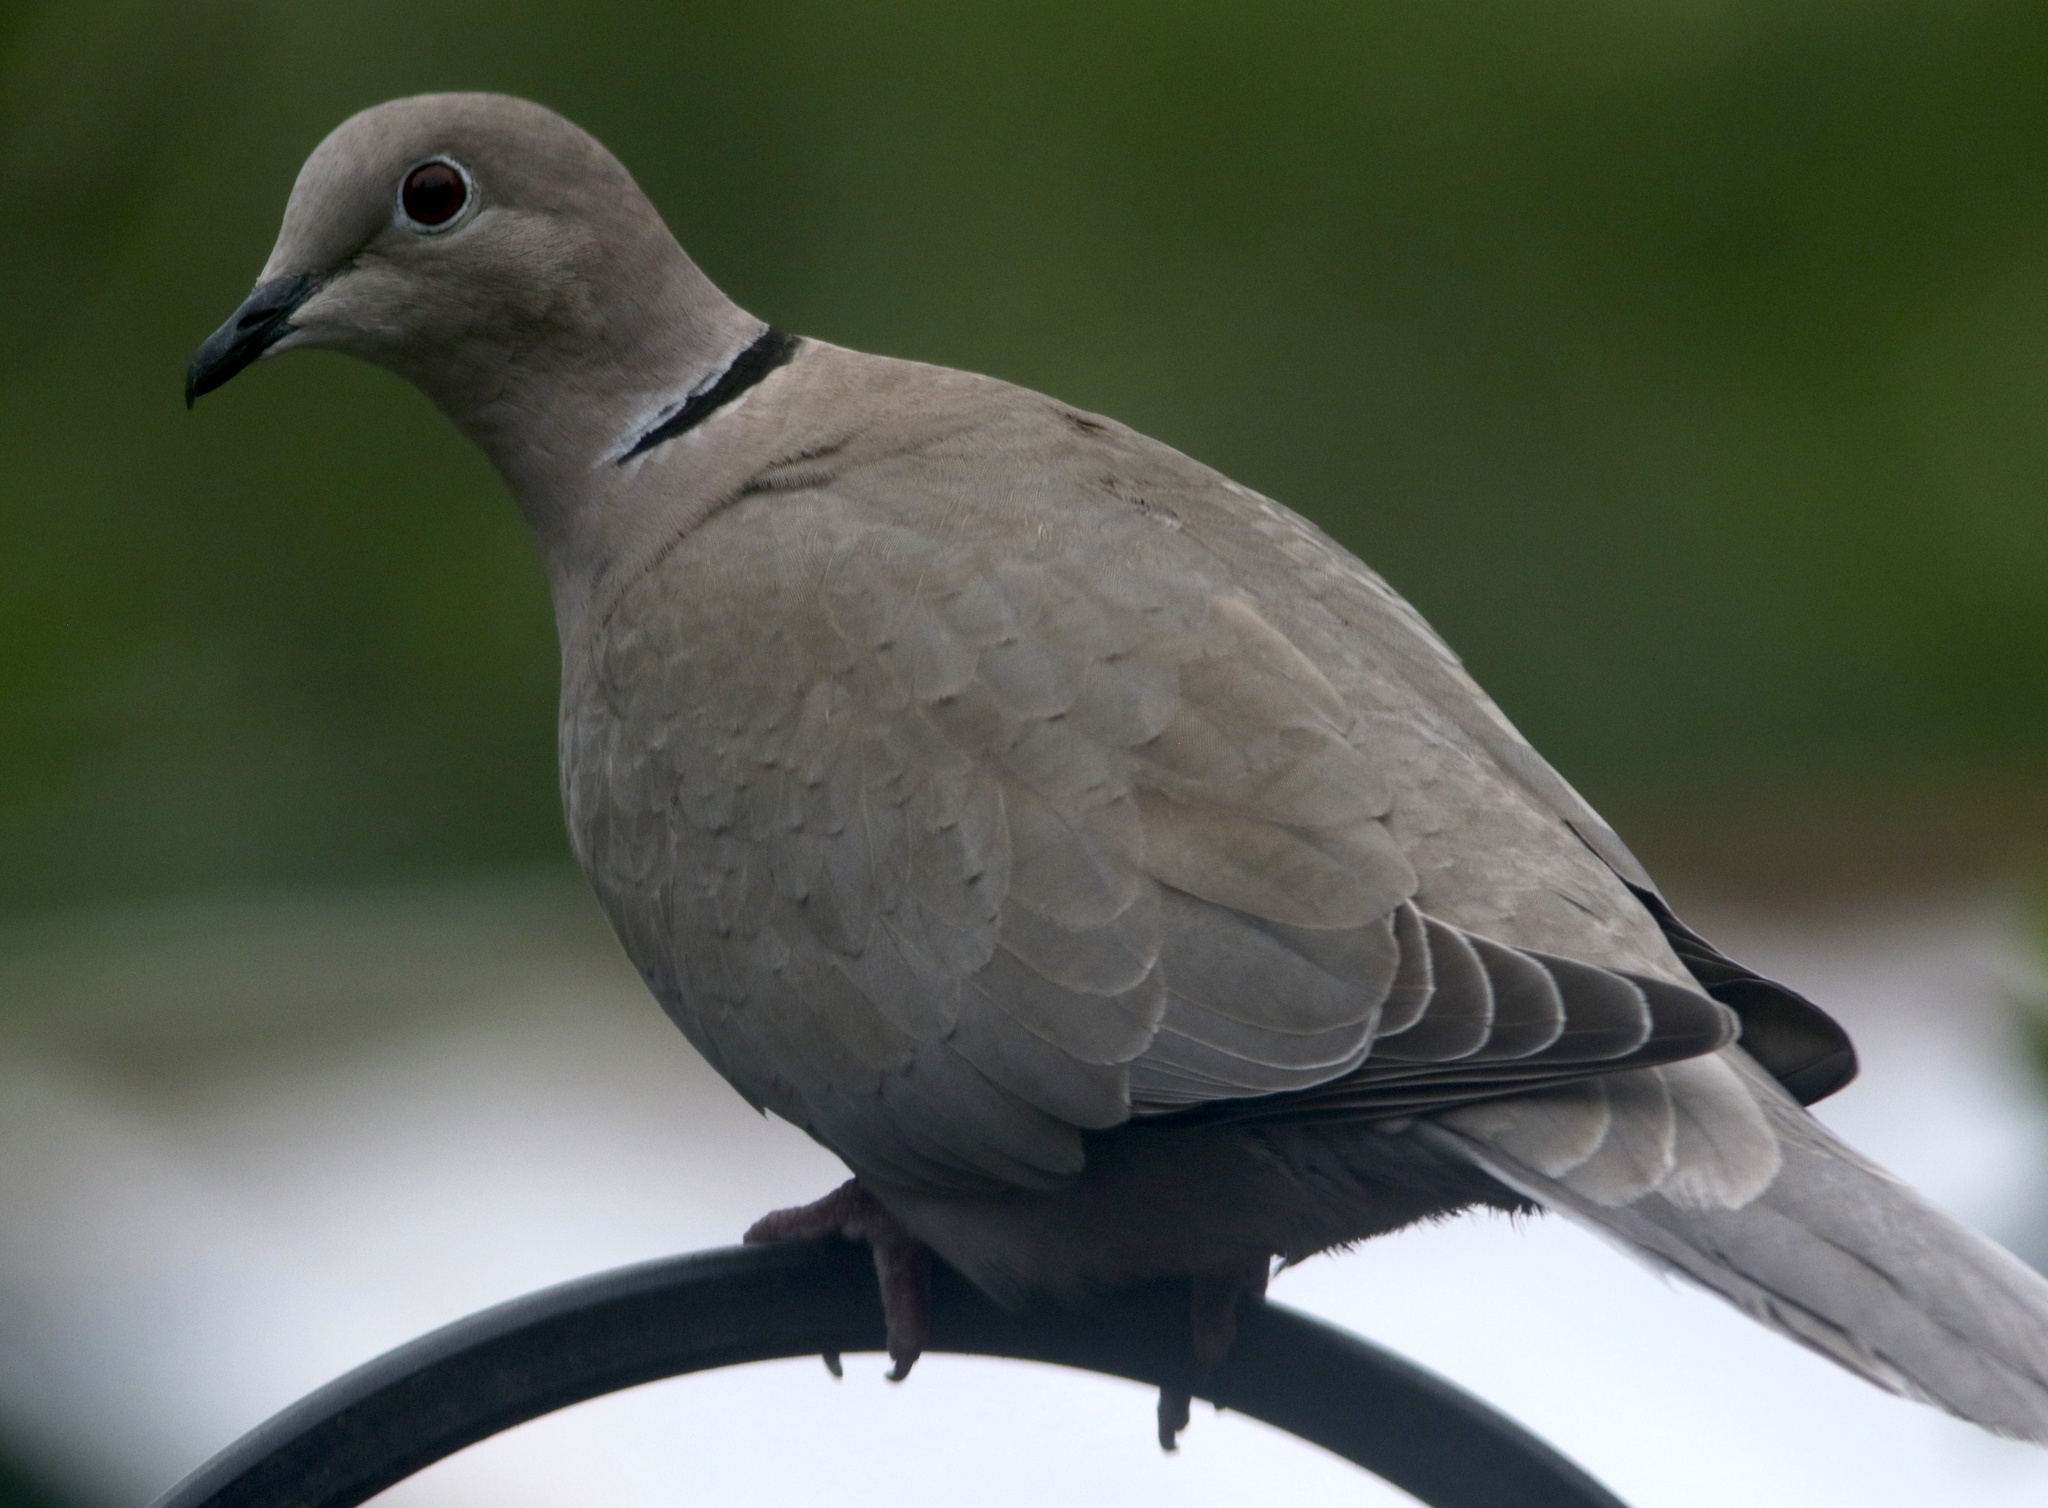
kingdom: Animalia
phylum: Chordata
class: Aves
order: Columbiformes
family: Columbidae
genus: Streptopelia
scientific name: Streptopelia decaocto
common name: Eurasian collared dove
